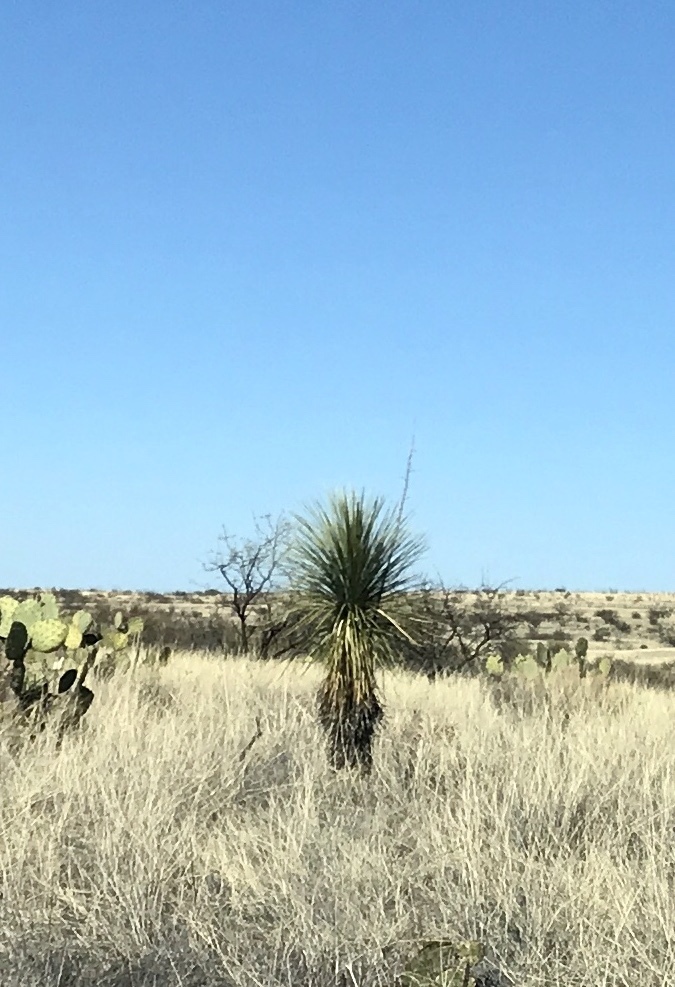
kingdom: Plantae
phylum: Tracheophyta
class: Liliopsida
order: Asparagales
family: Asparagaceae
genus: Yucca
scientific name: Yucca elata
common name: Palmella
